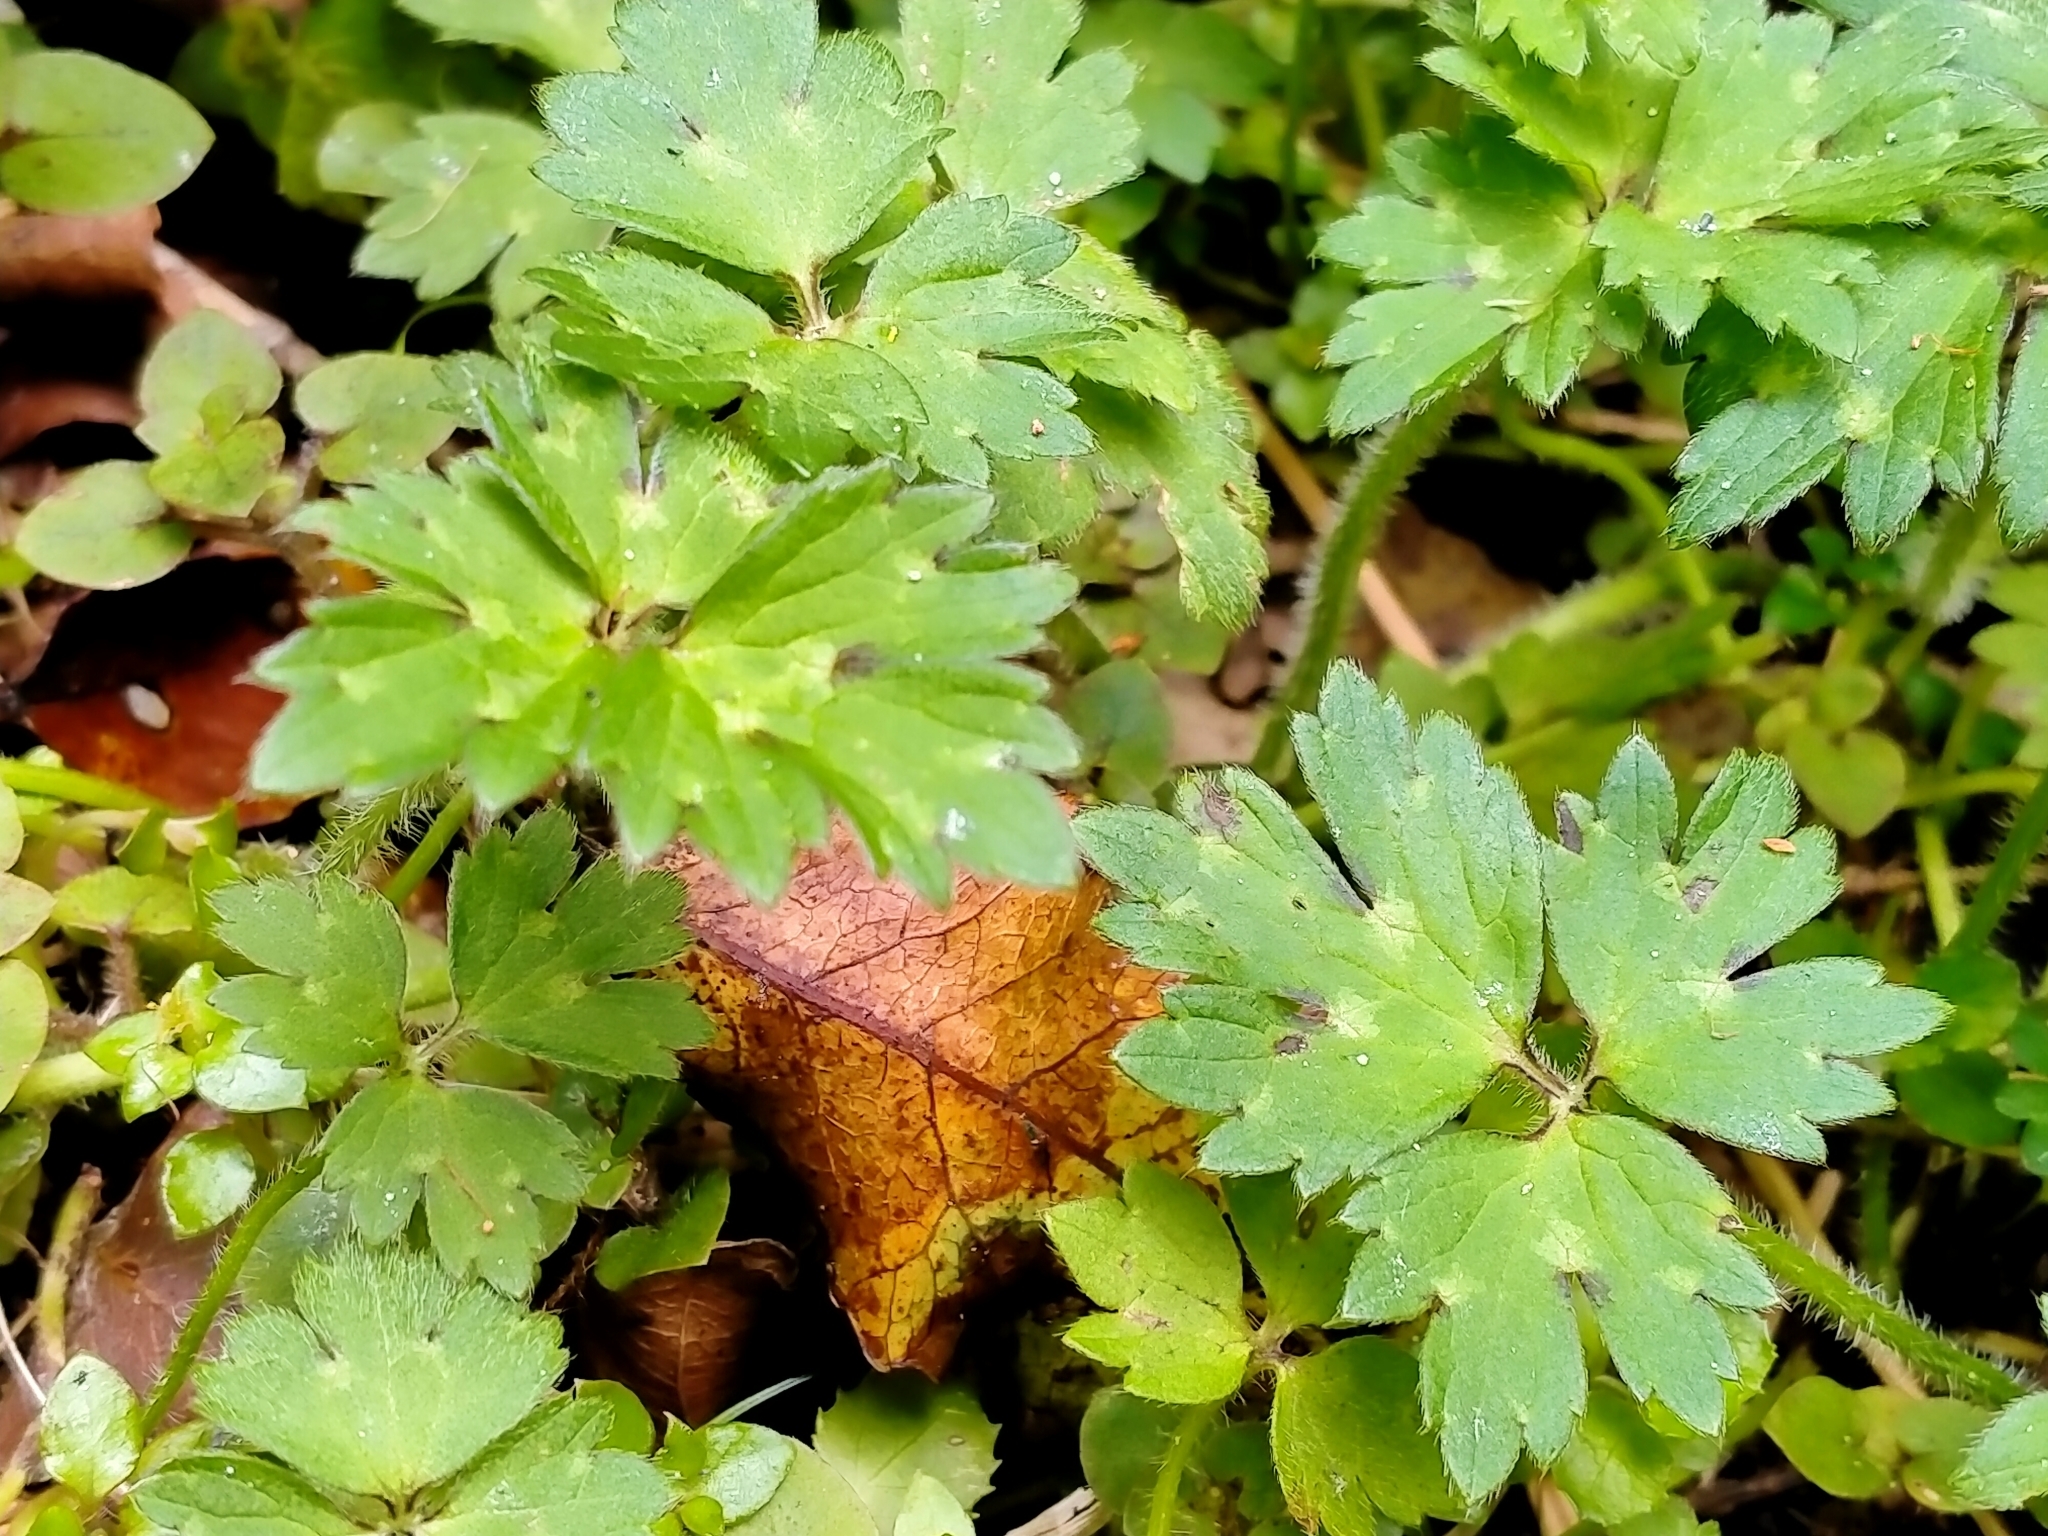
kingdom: Plantae
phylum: Tracheophyta
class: Magnoliopsida
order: Ranunculales
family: Ranunculaceae
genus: Ranunculus
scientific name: Ranunculus repens
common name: Creeping buttercup
